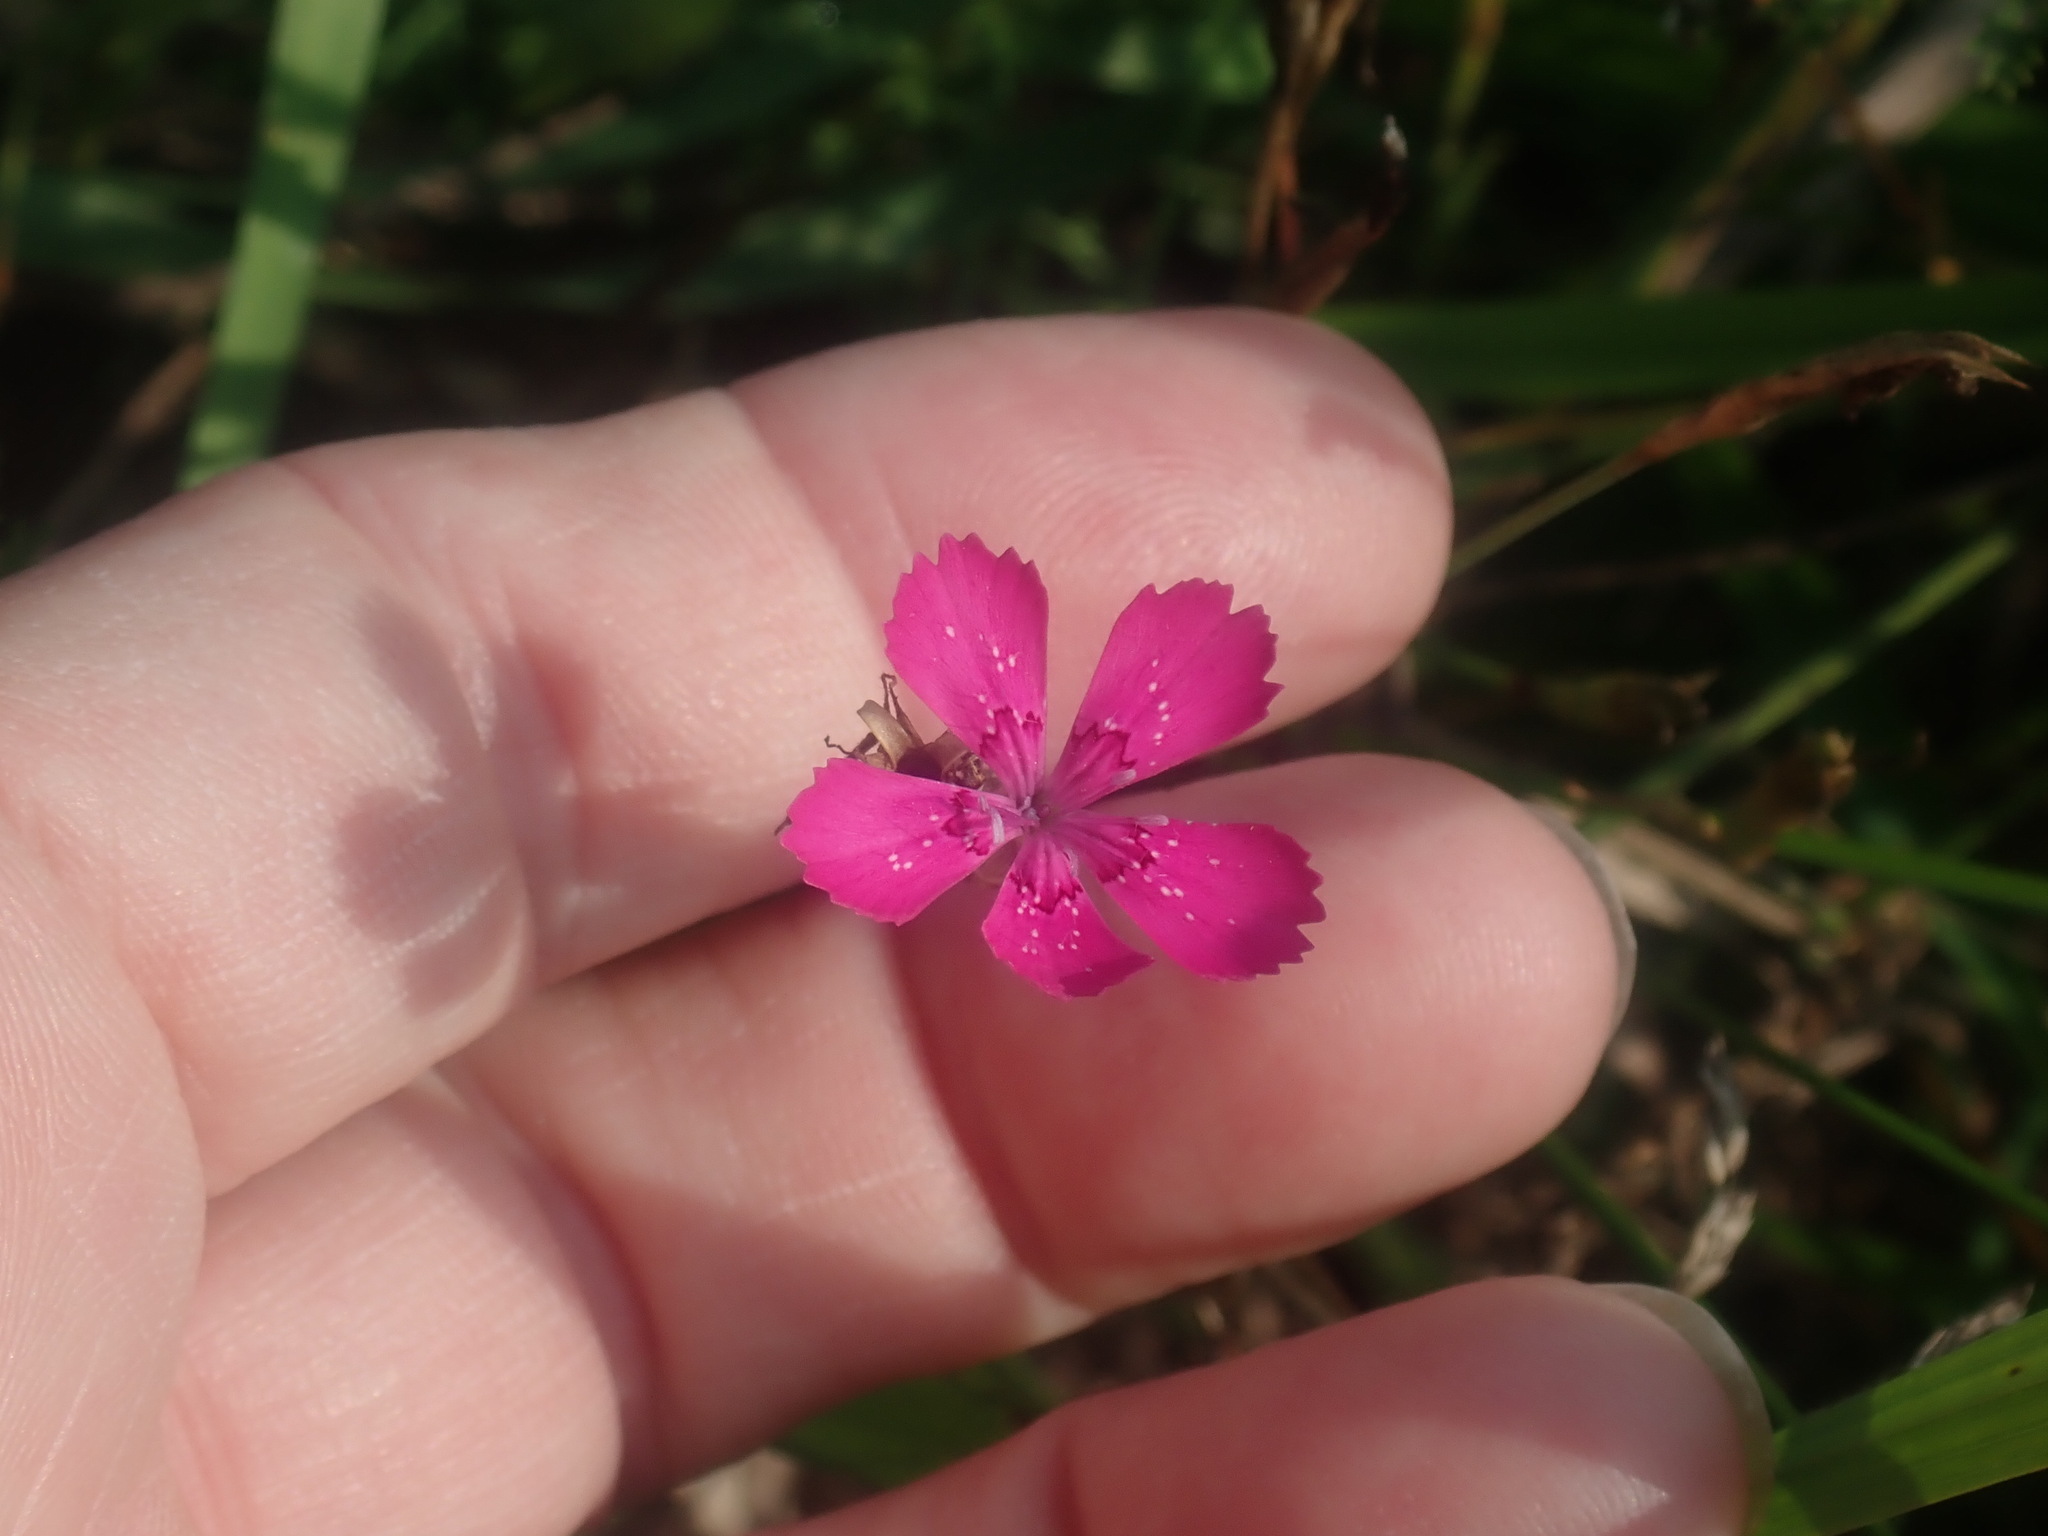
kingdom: Plantae
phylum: Tracheophyta
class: Magnoliopsida
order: Caryophyllales
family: Caryophyllaceae
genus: Dianthus
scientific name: Dianthus deltoides
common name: Maiden pink
